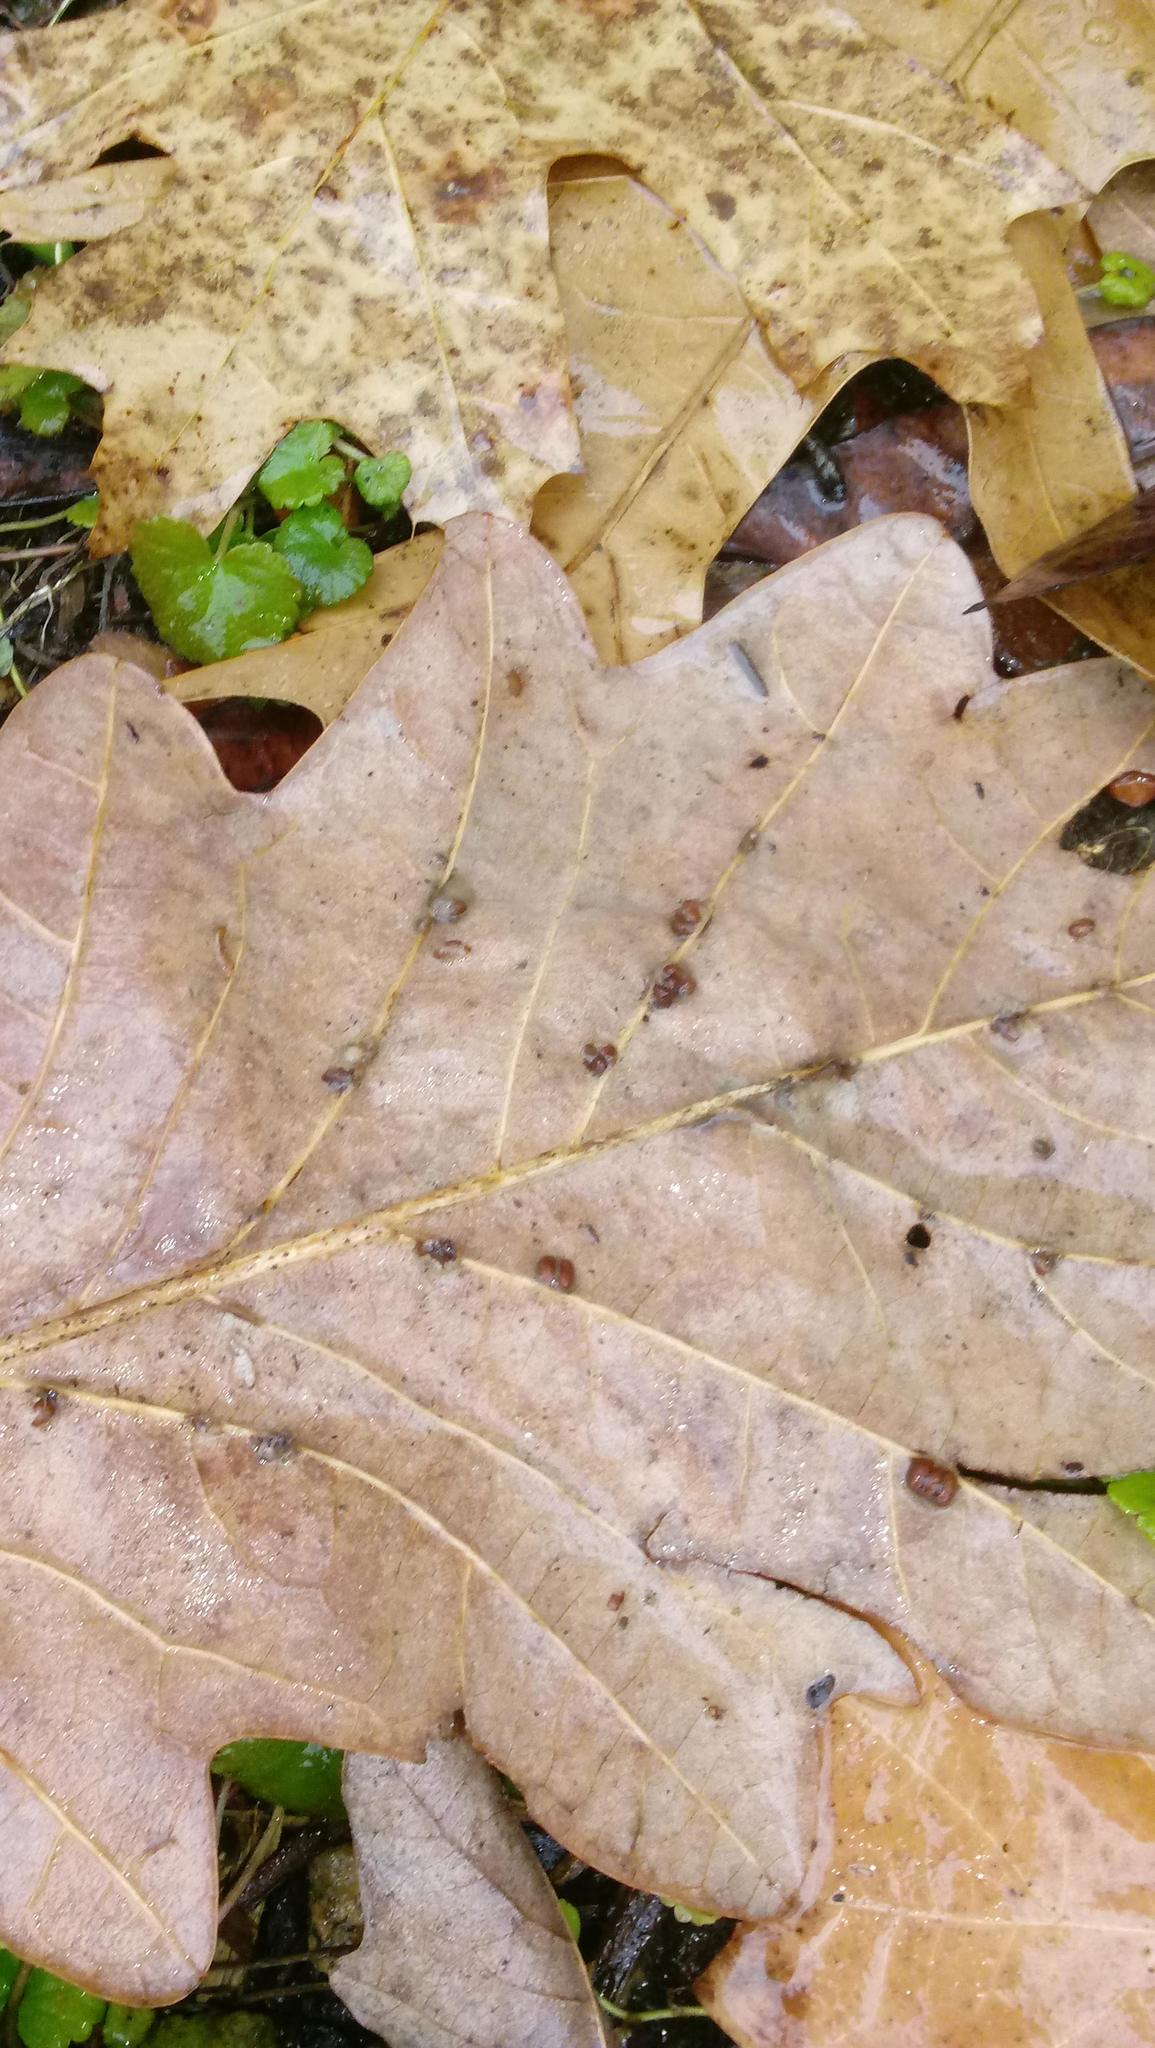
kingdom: Animalia
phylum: Arthropoda
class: Insecta
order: Hymenoptera
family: Cynipidae
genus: Andricus
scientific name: Andricus Druon ignotum
